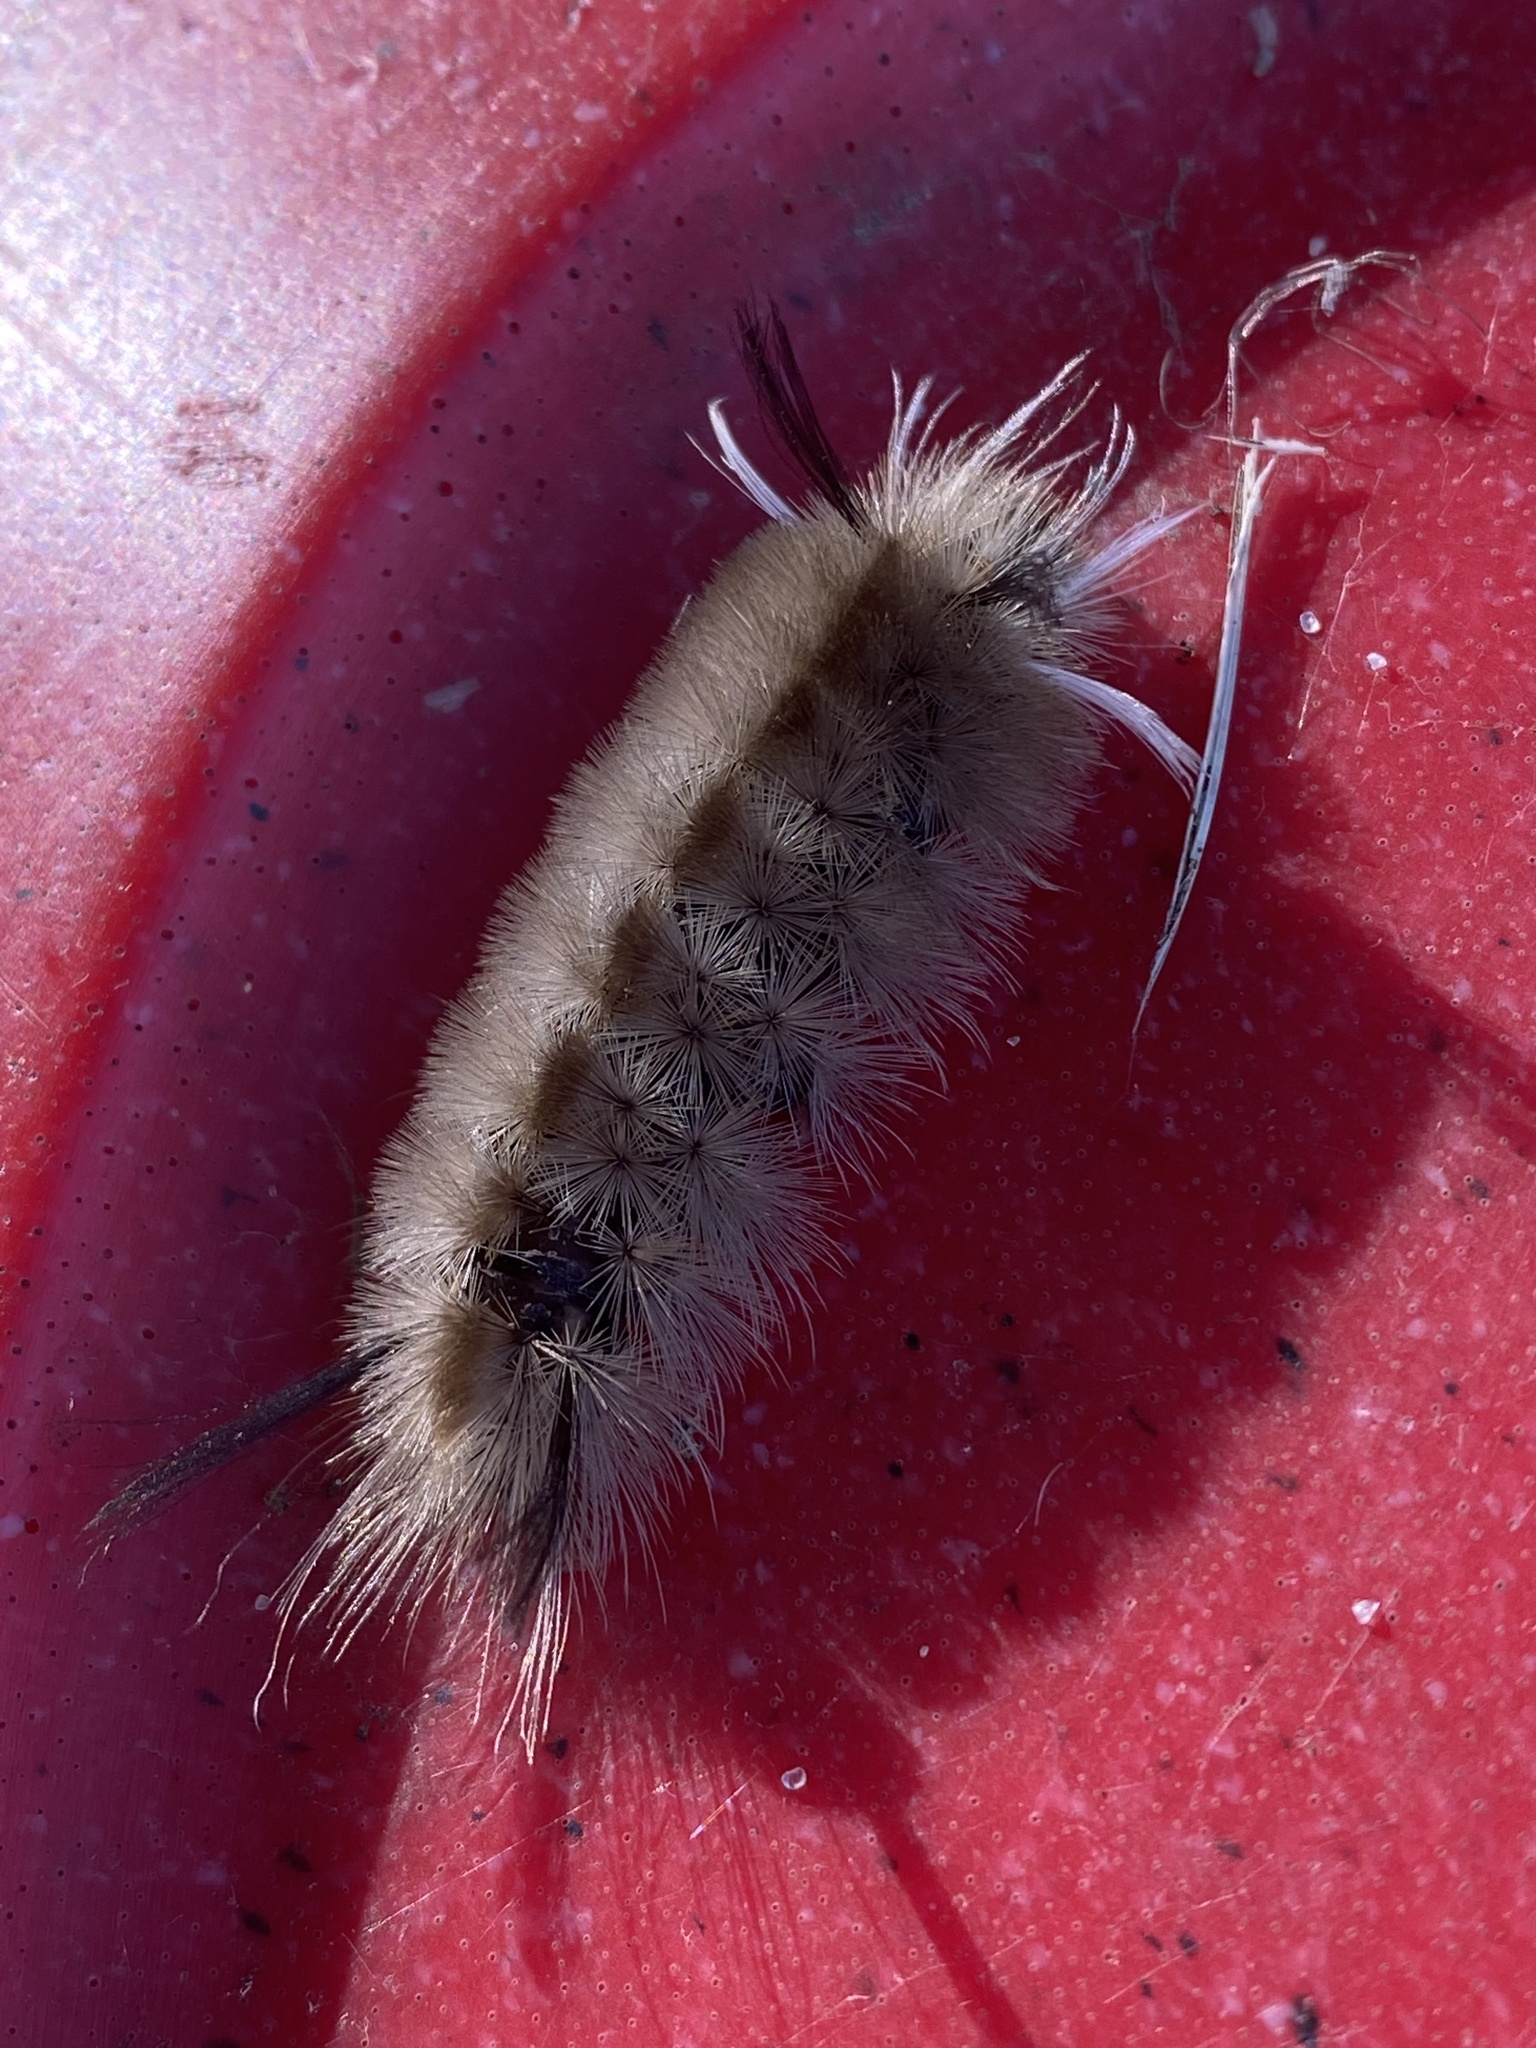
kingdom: Animalia
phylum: Arthropoda
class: Insecta
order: Lepidoptera
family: Erebidae
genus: Halysidota
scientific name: Halysidota tessellaris
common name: Banded tussock moth
